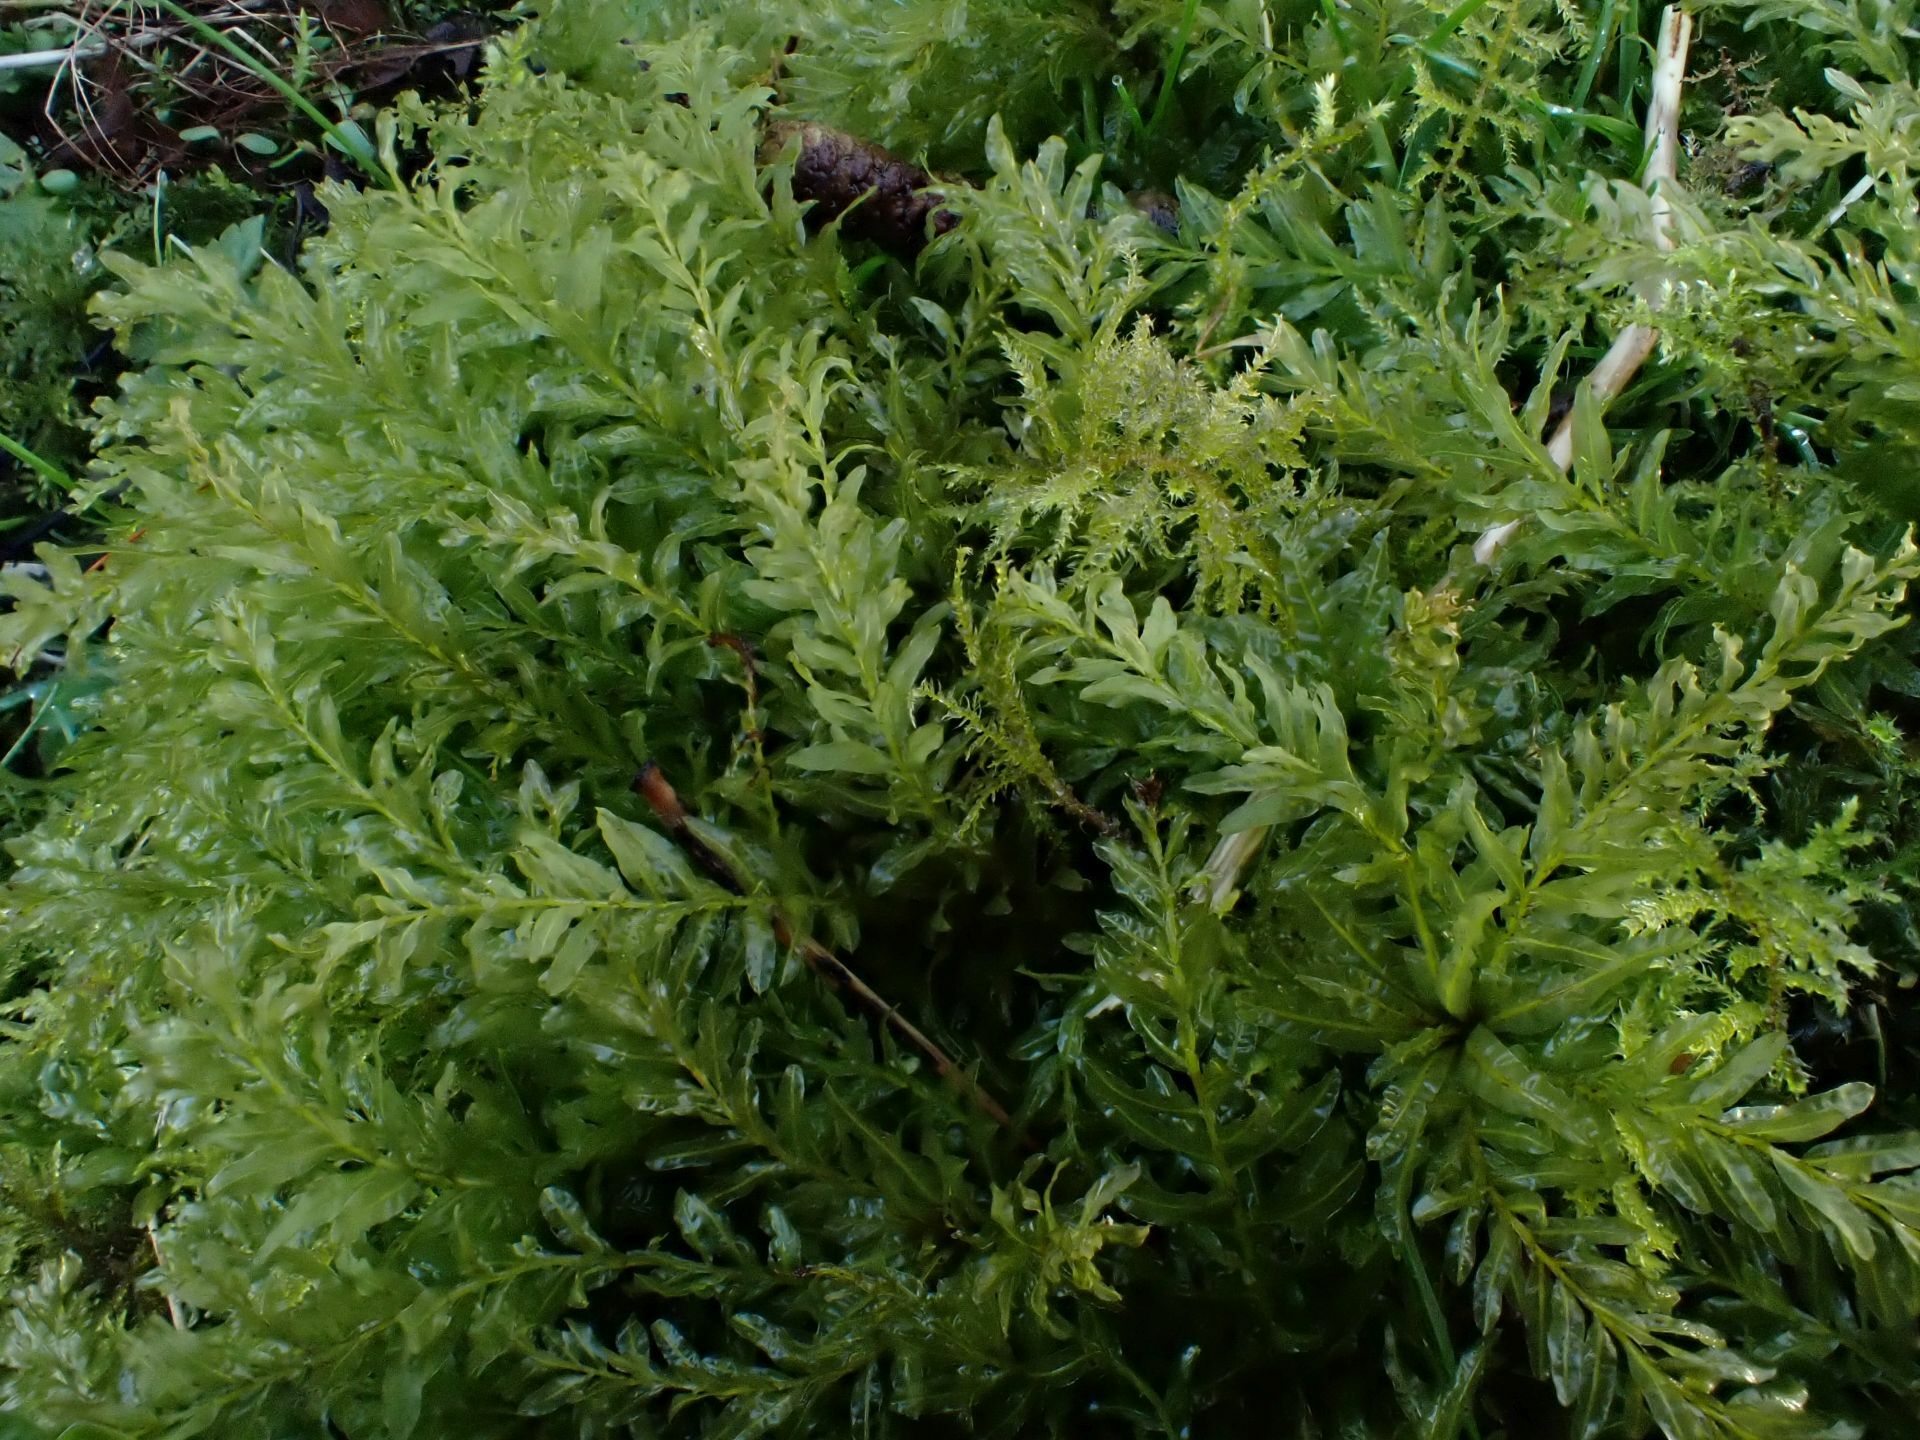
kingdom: Plantae
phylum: Bryophyta
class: Bryopsida
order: Bryales
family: Mniaceae
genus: Plagiomnium
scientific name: Plagiomnium undulatum
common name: Hart's-tongue thyme-moss
